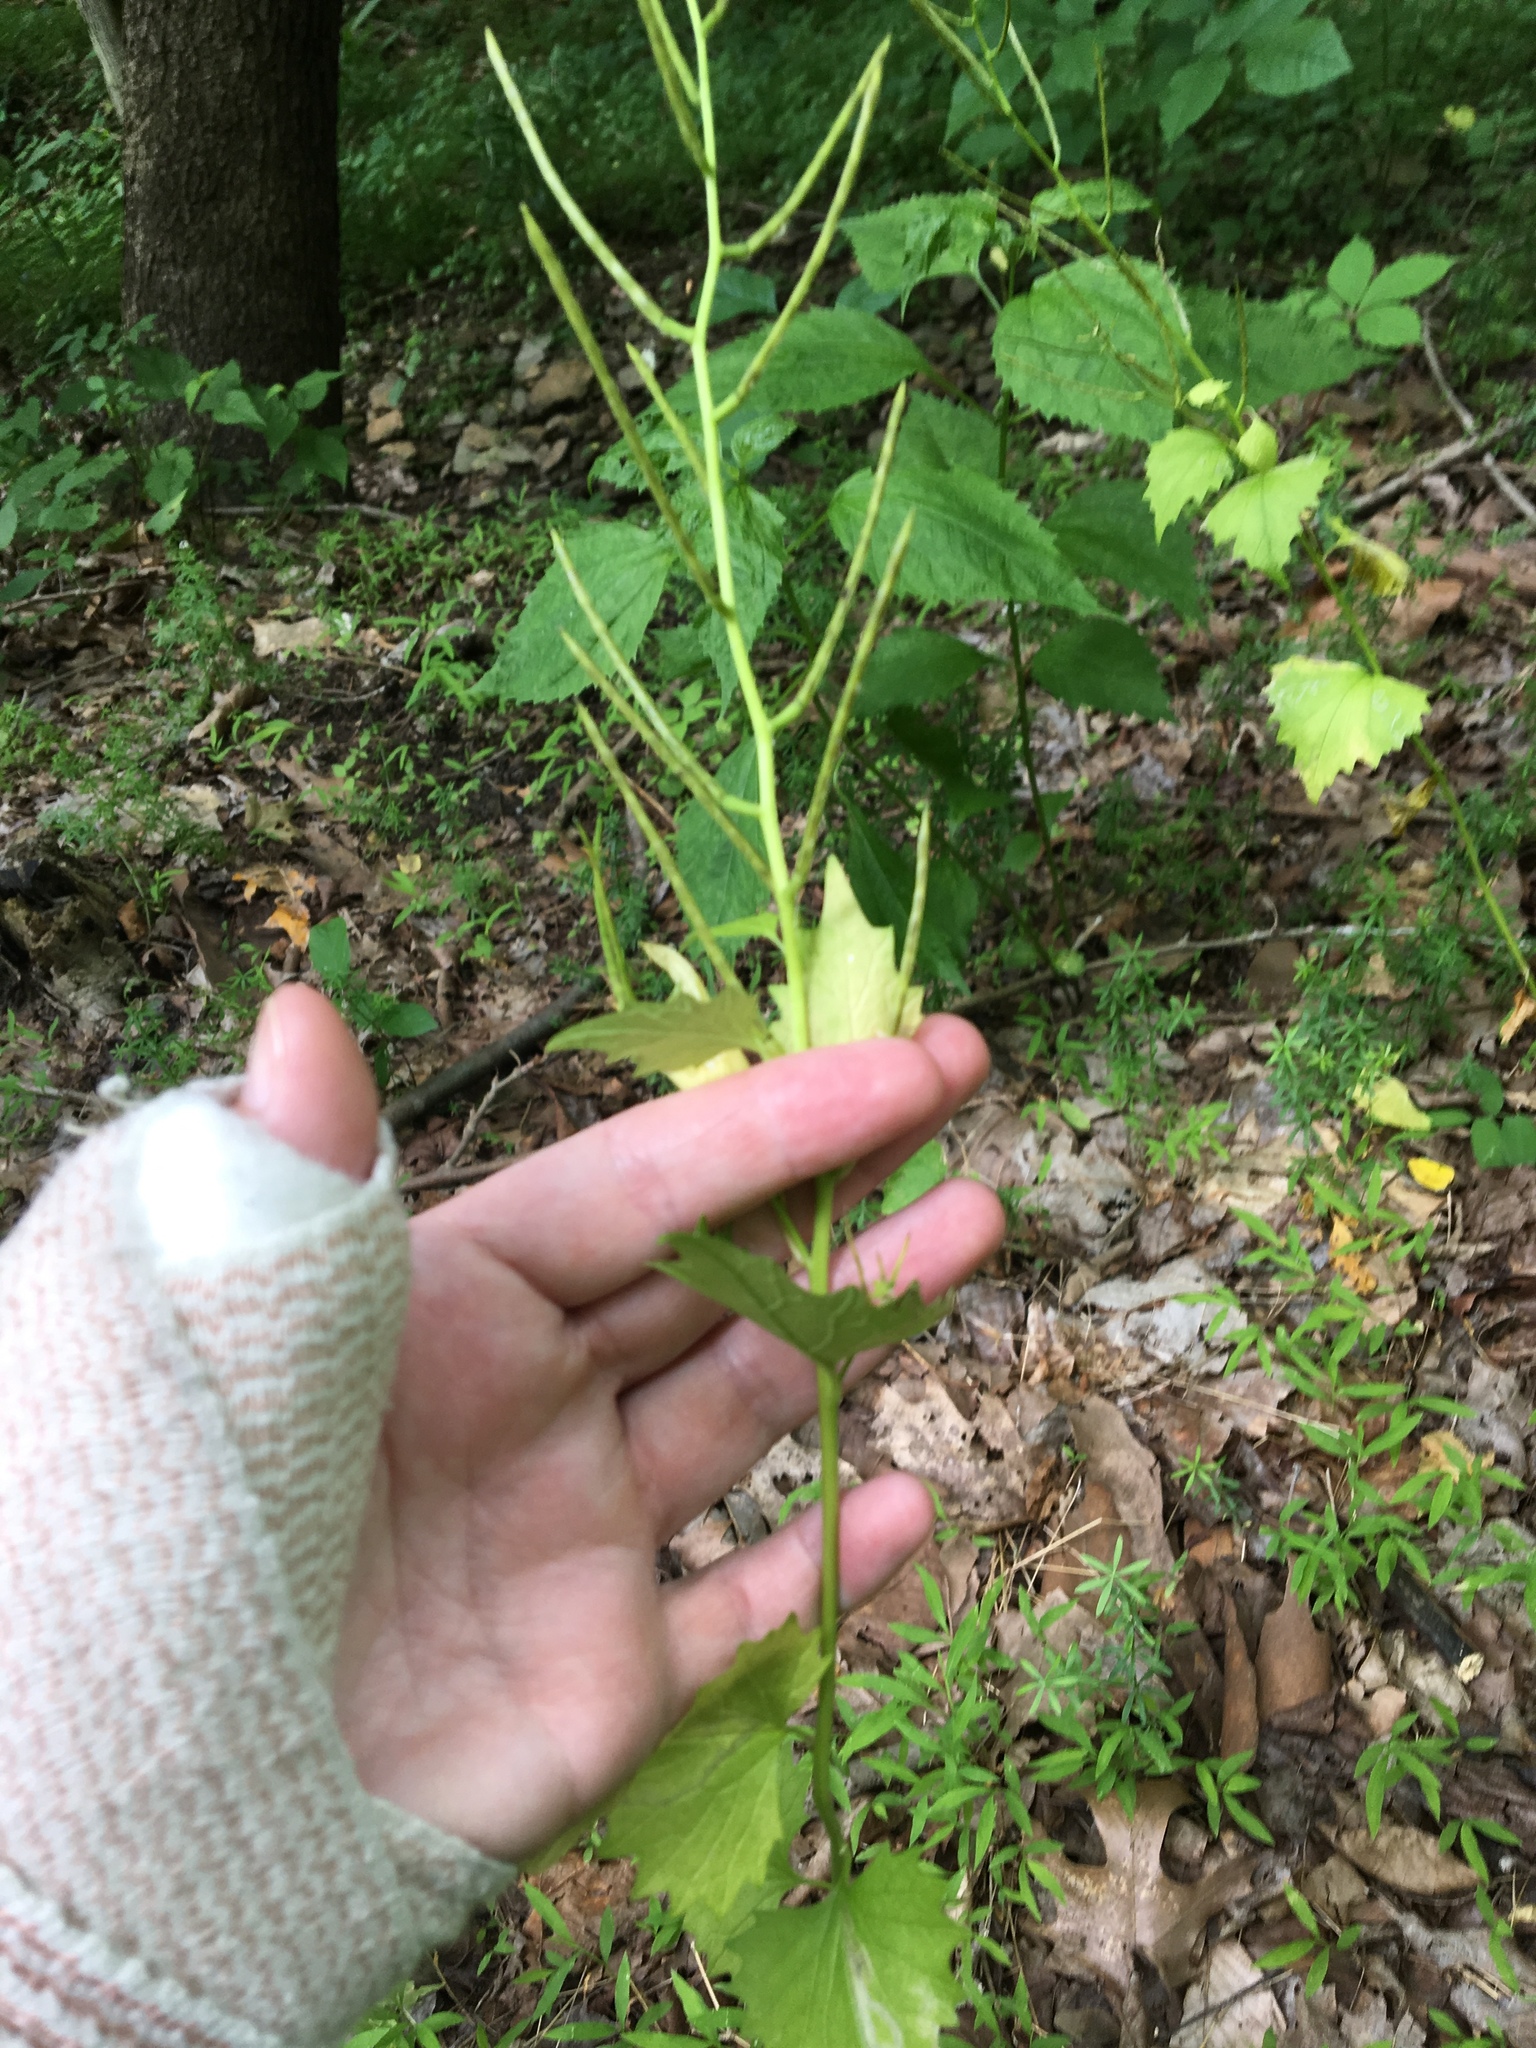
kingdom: Plantae
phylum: Tracheophyta
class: Magnoliopsida
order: Brassicales
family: Brassicaceae
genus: Alliaria
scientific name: Alliaria petiolata
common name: Garlic mustard
